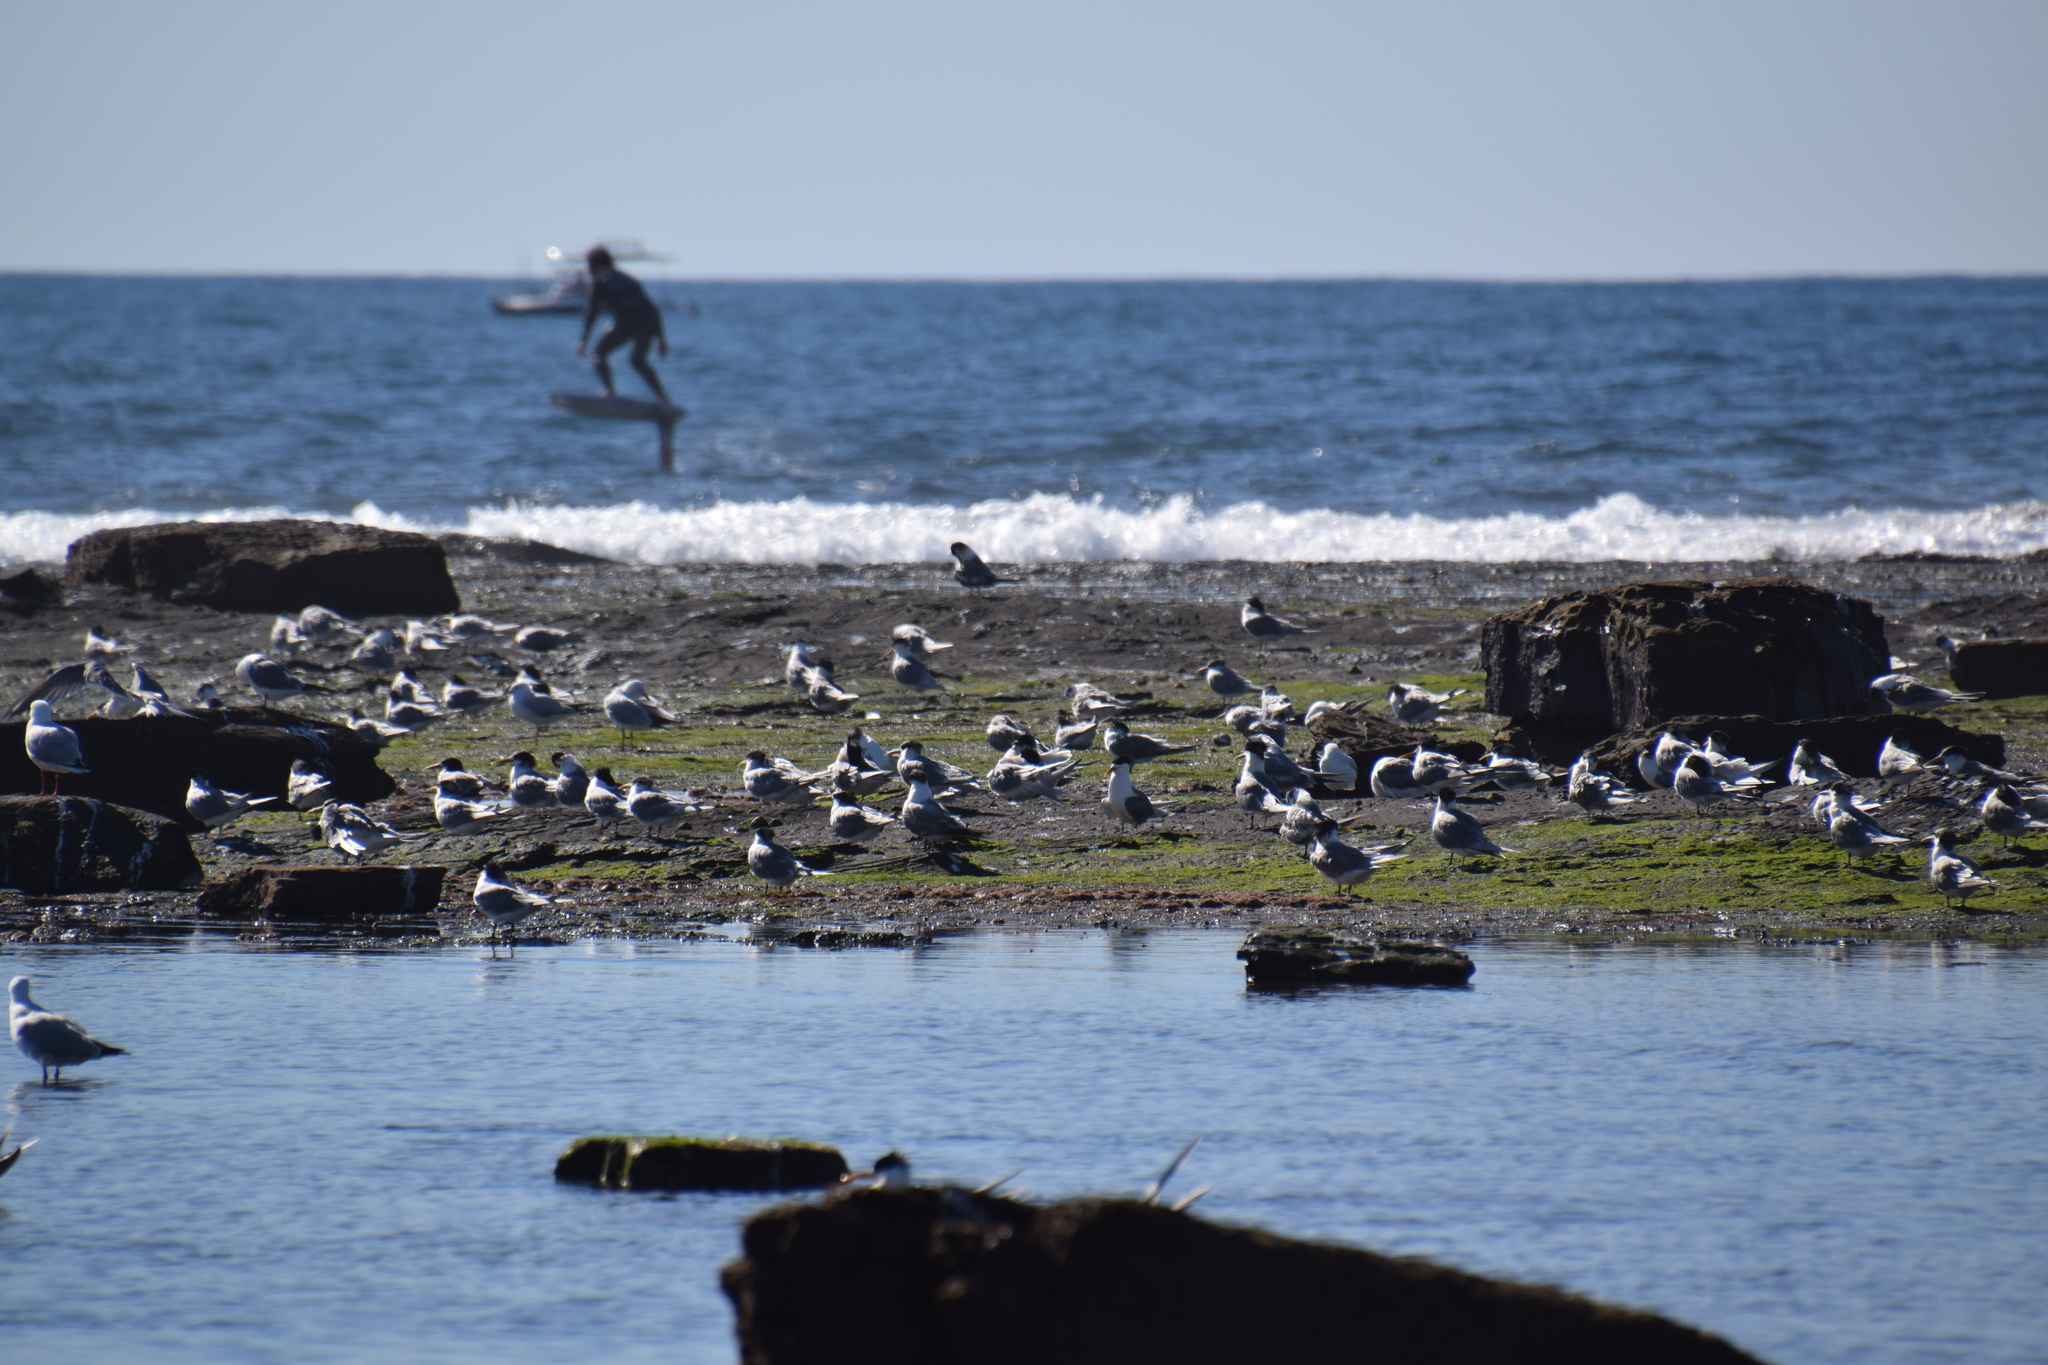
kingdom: Animalia
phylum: Chordata
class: Aves
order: Charadriiformes
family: Laridae
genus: Thalasseus
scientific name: Thalasseus bergii
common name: Greater crested tern
